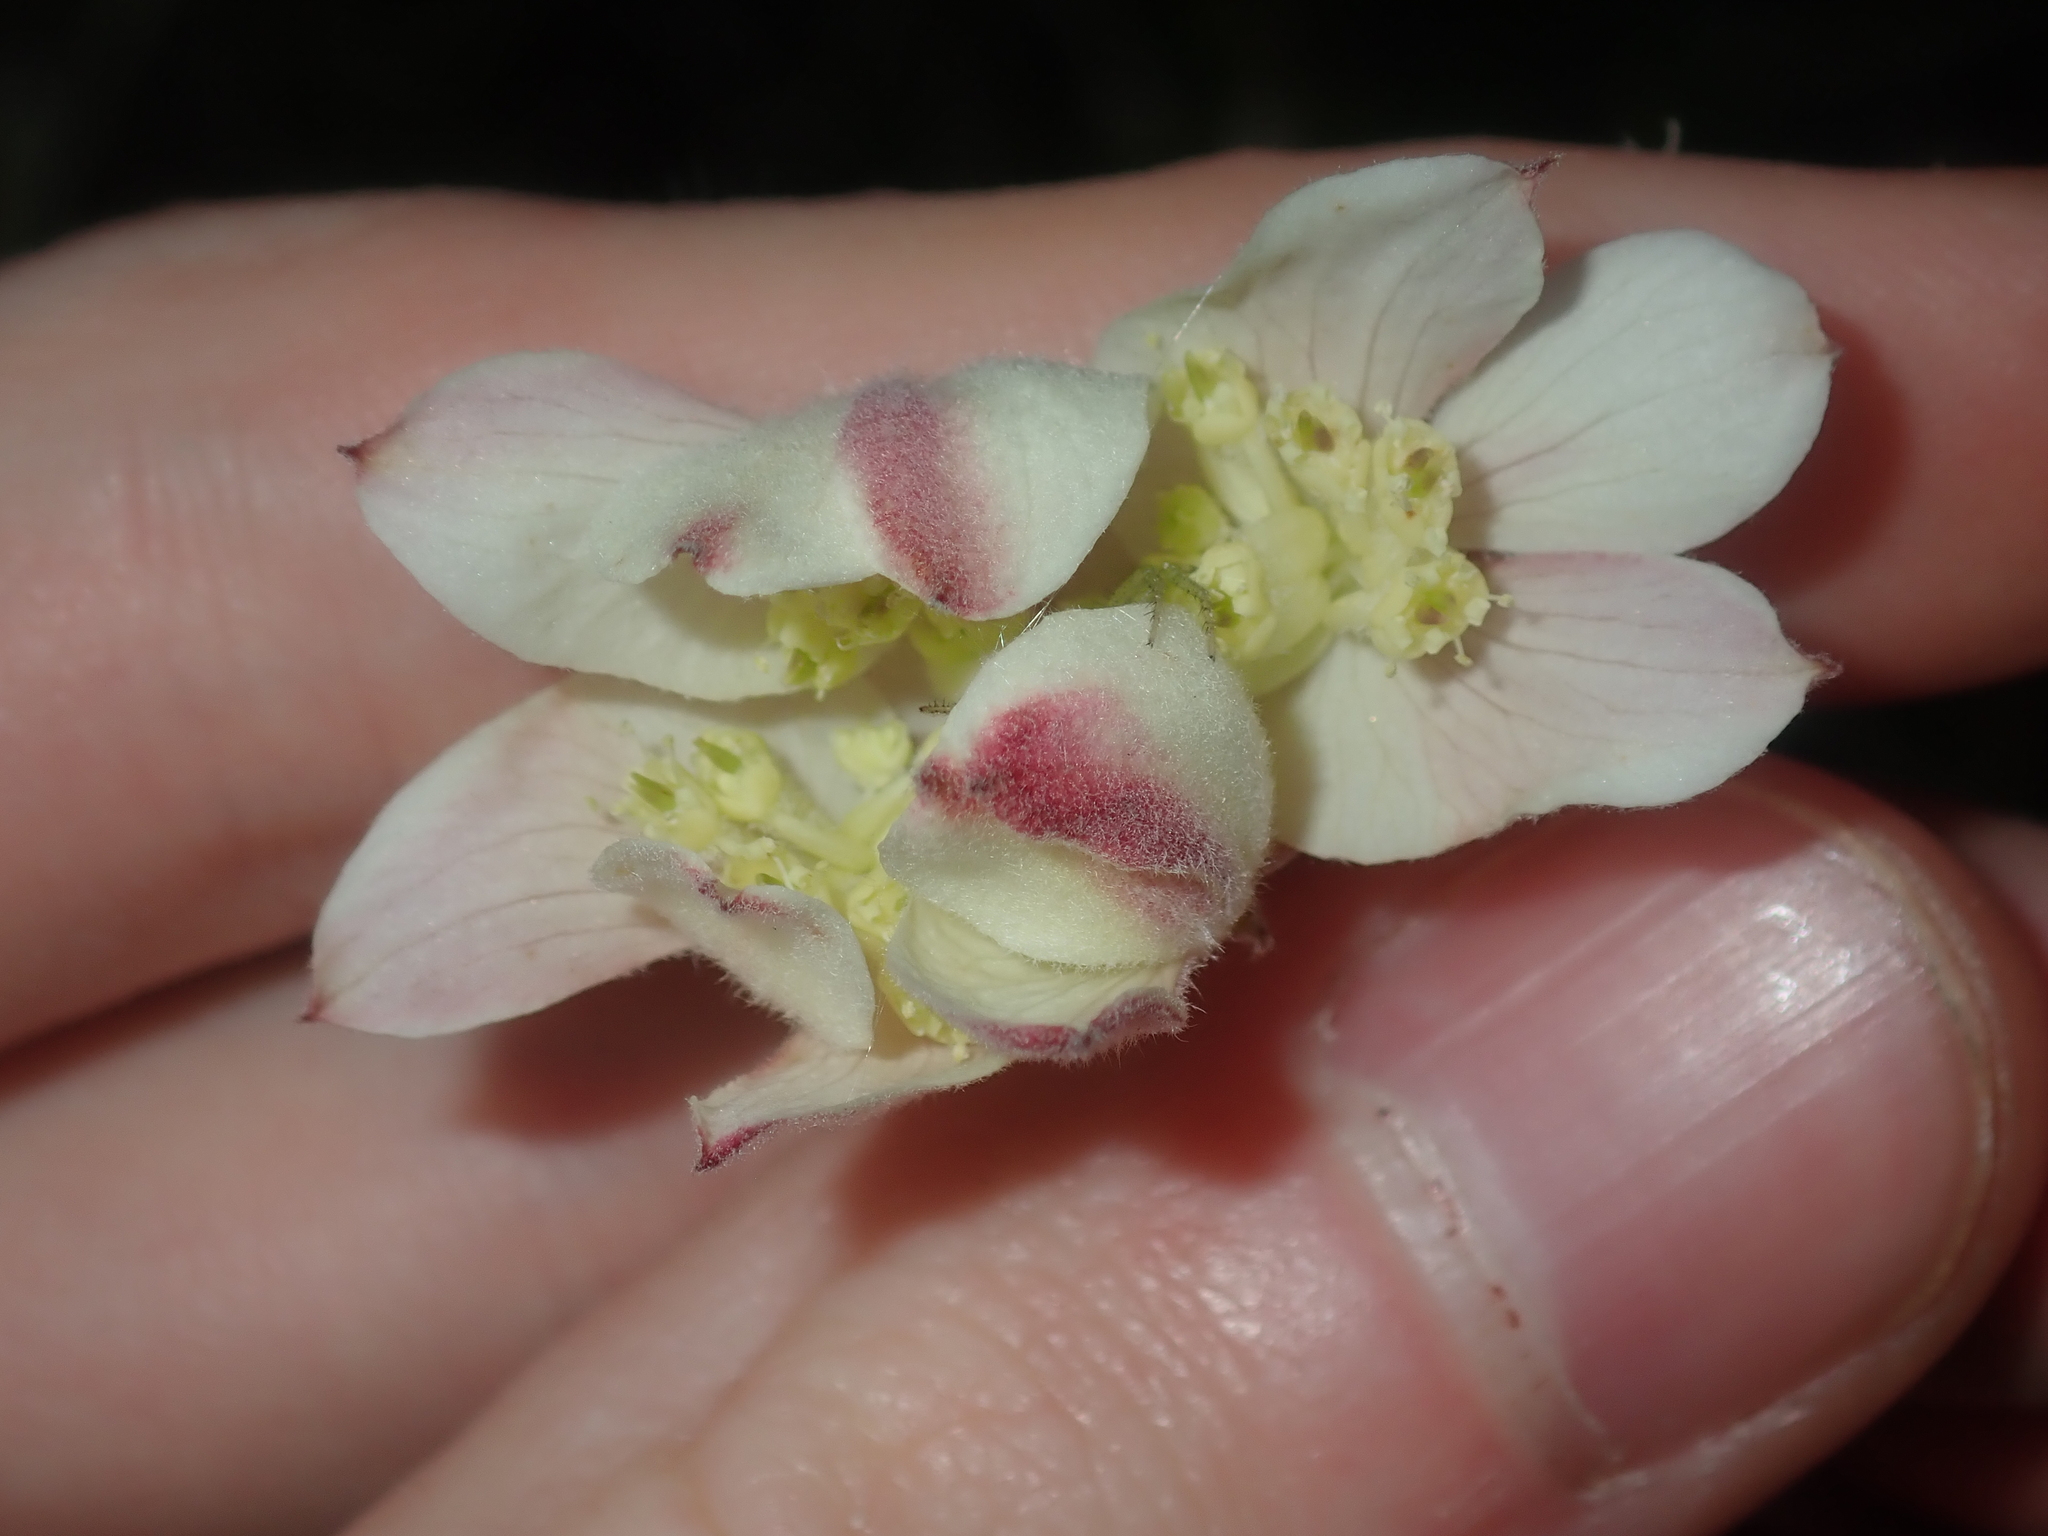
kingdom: Plantae
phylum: Tracheophyta
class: Magnoliopsida
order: Apiales
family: Apiaceae
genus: Xanthosia
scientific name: Xanthosia tomentosa
